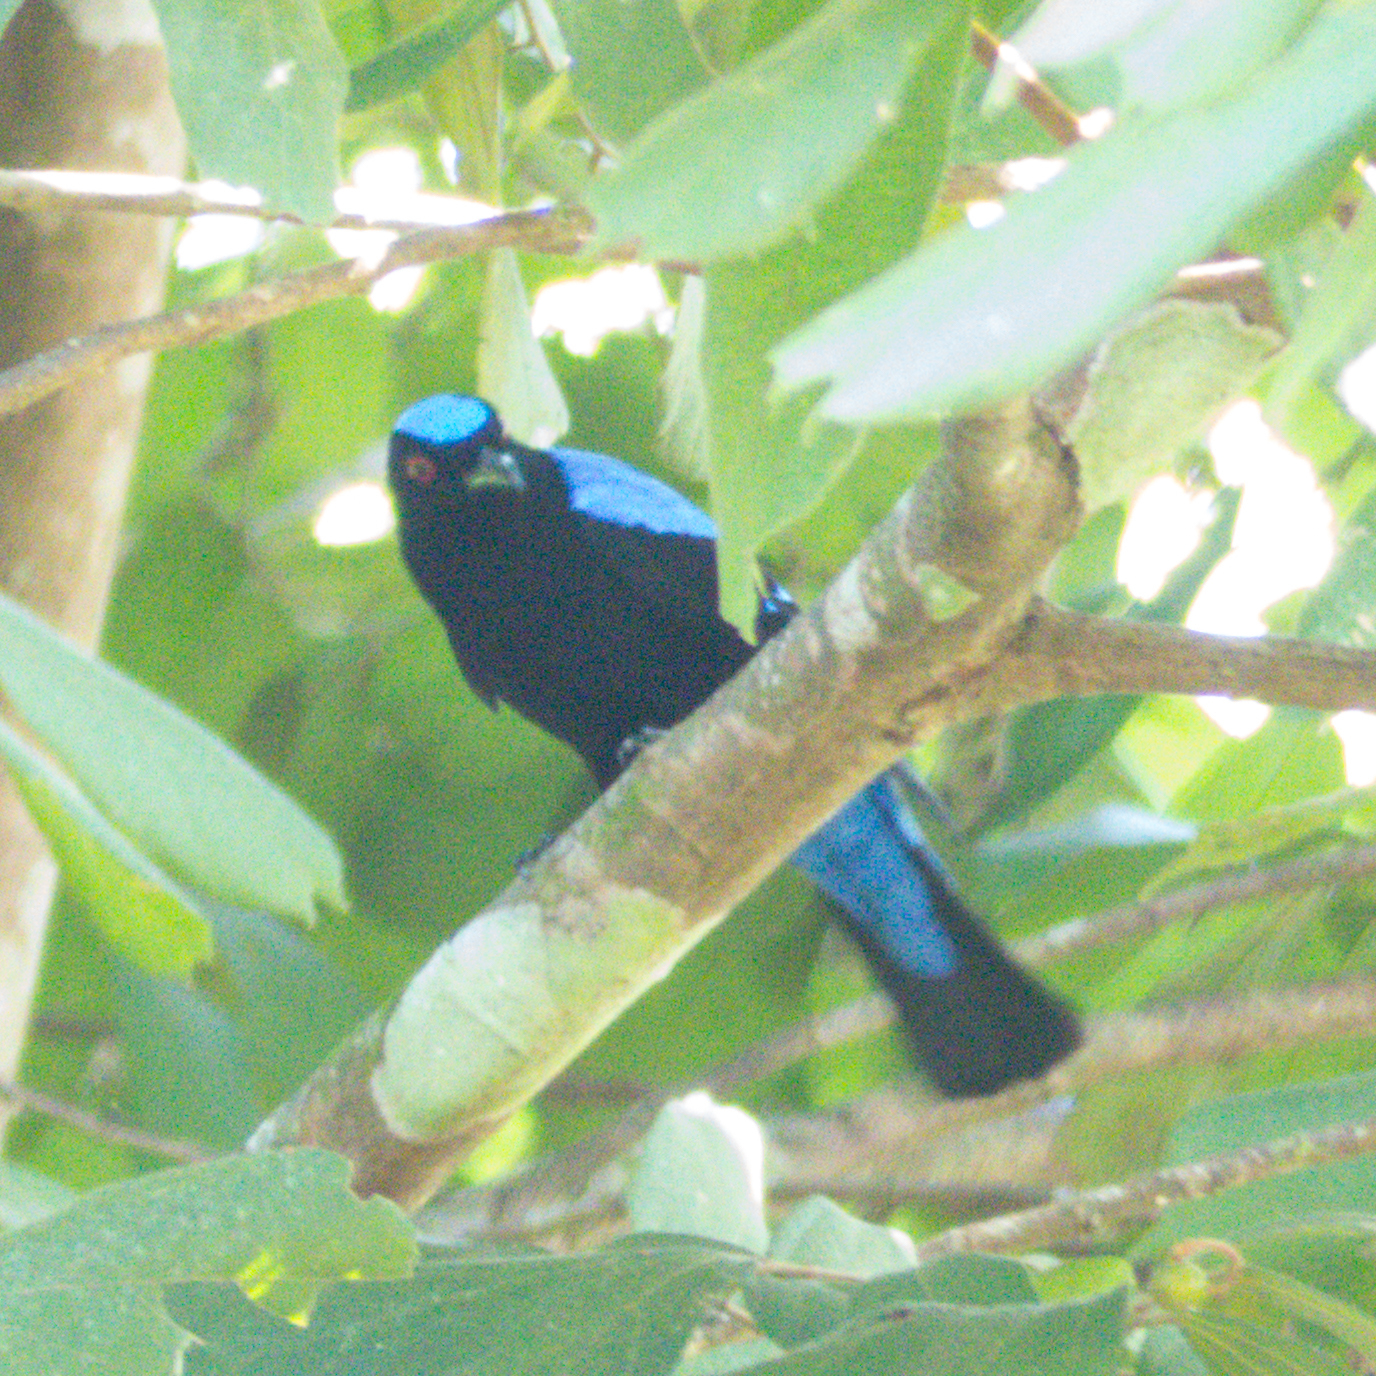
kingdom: Animalia
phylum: Chordata
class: Aves
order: Passeriformes
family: Irenidae
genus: Irena
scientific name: Irena puella
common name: Asian fairy-bluebird
